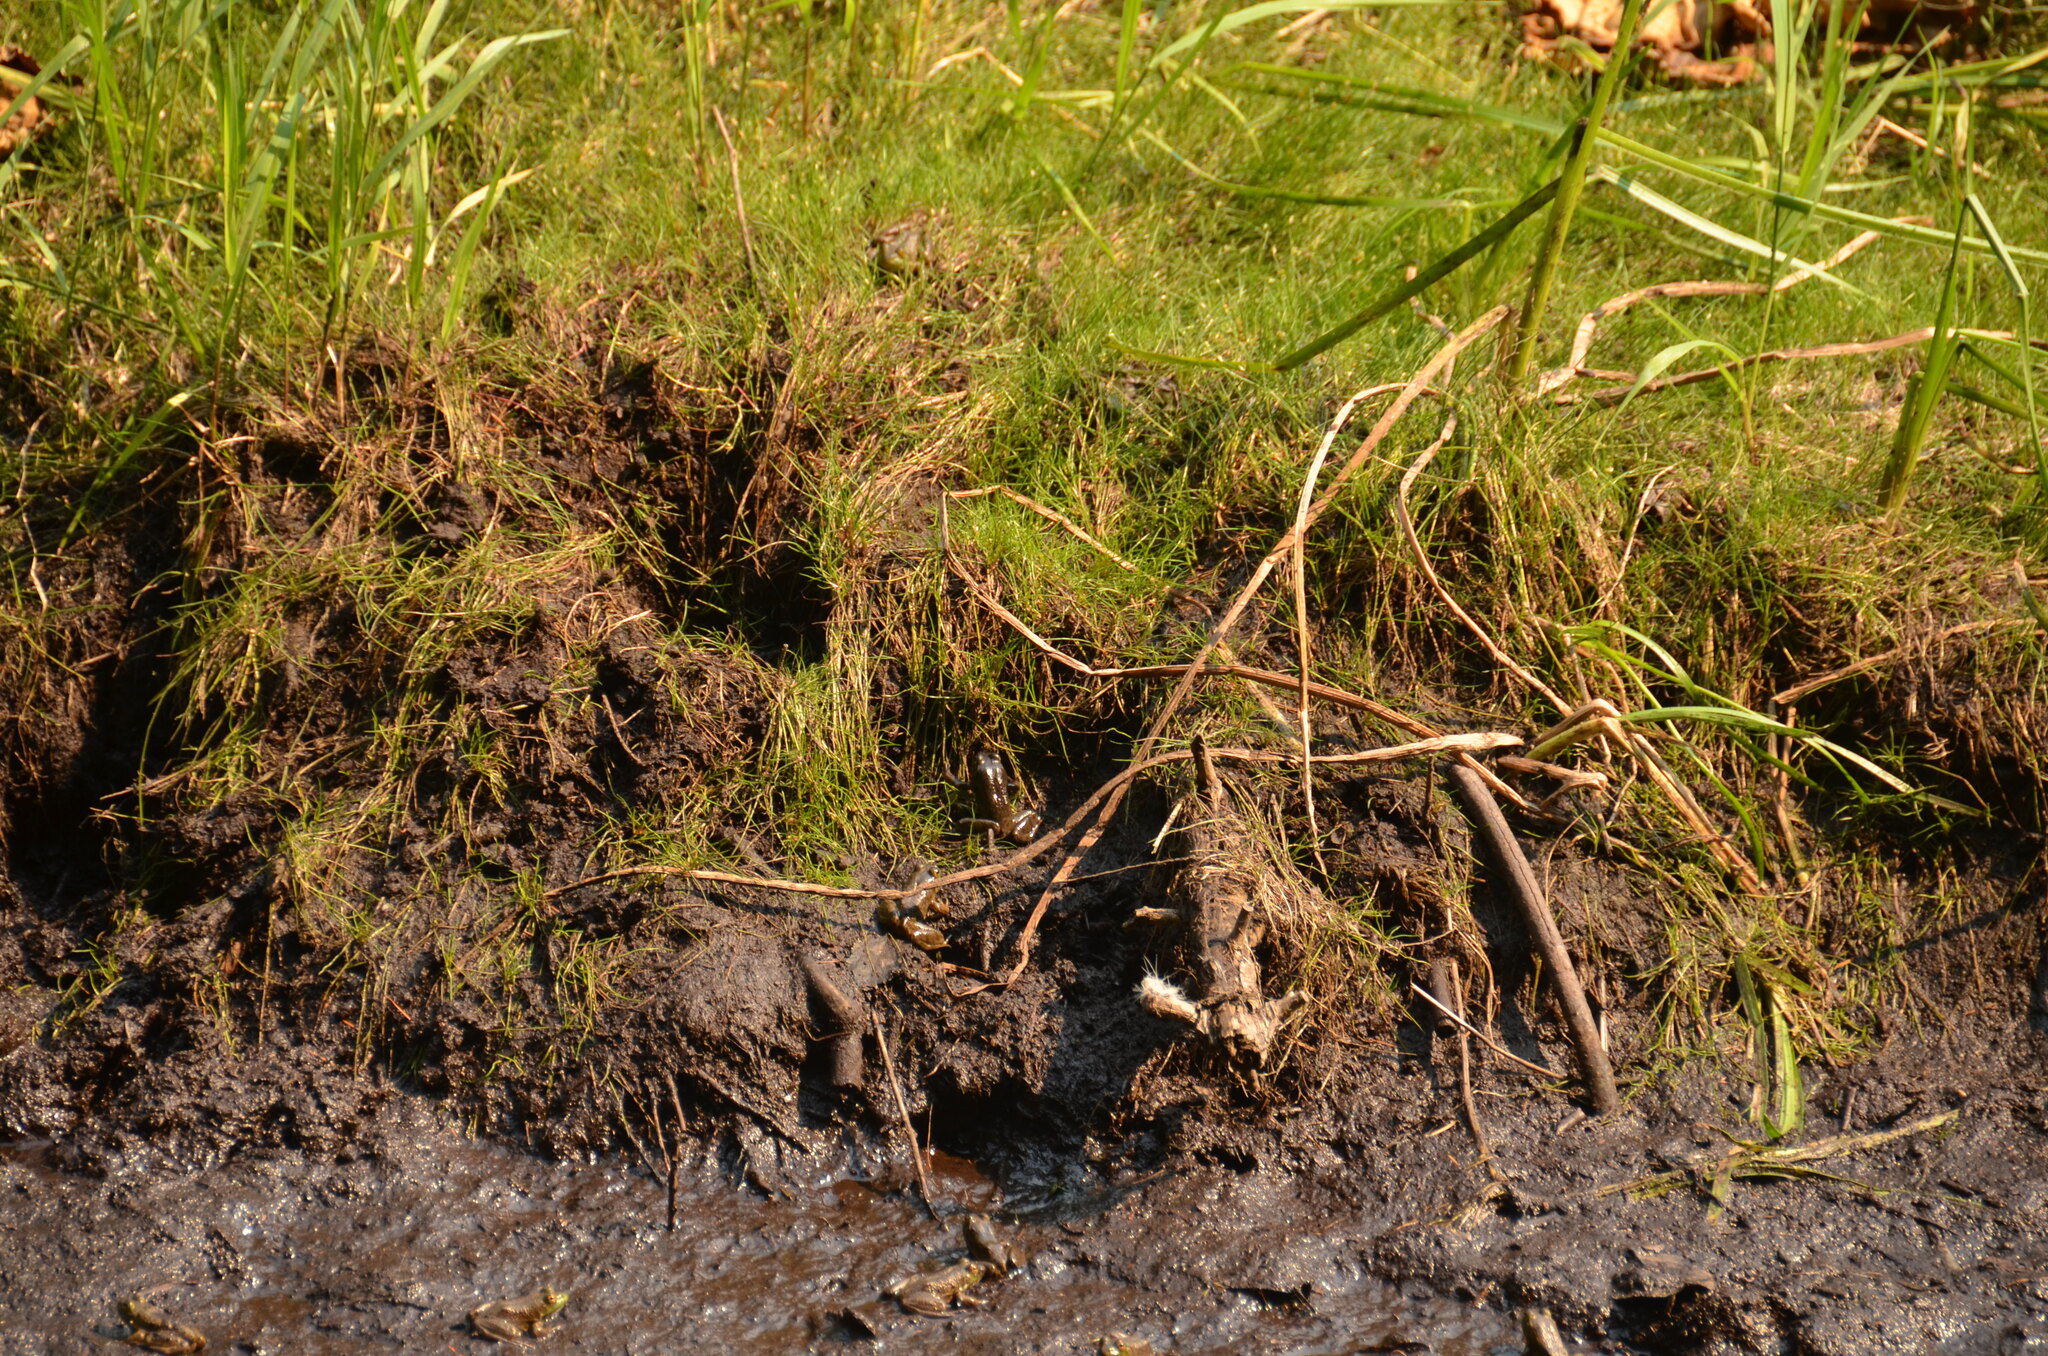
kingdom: Animalia
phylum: Chordata
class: Amphibia
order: Anura
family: Ranidae
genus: Lithobates
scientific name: Lithobates catesbeianus
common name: American bullfrog
